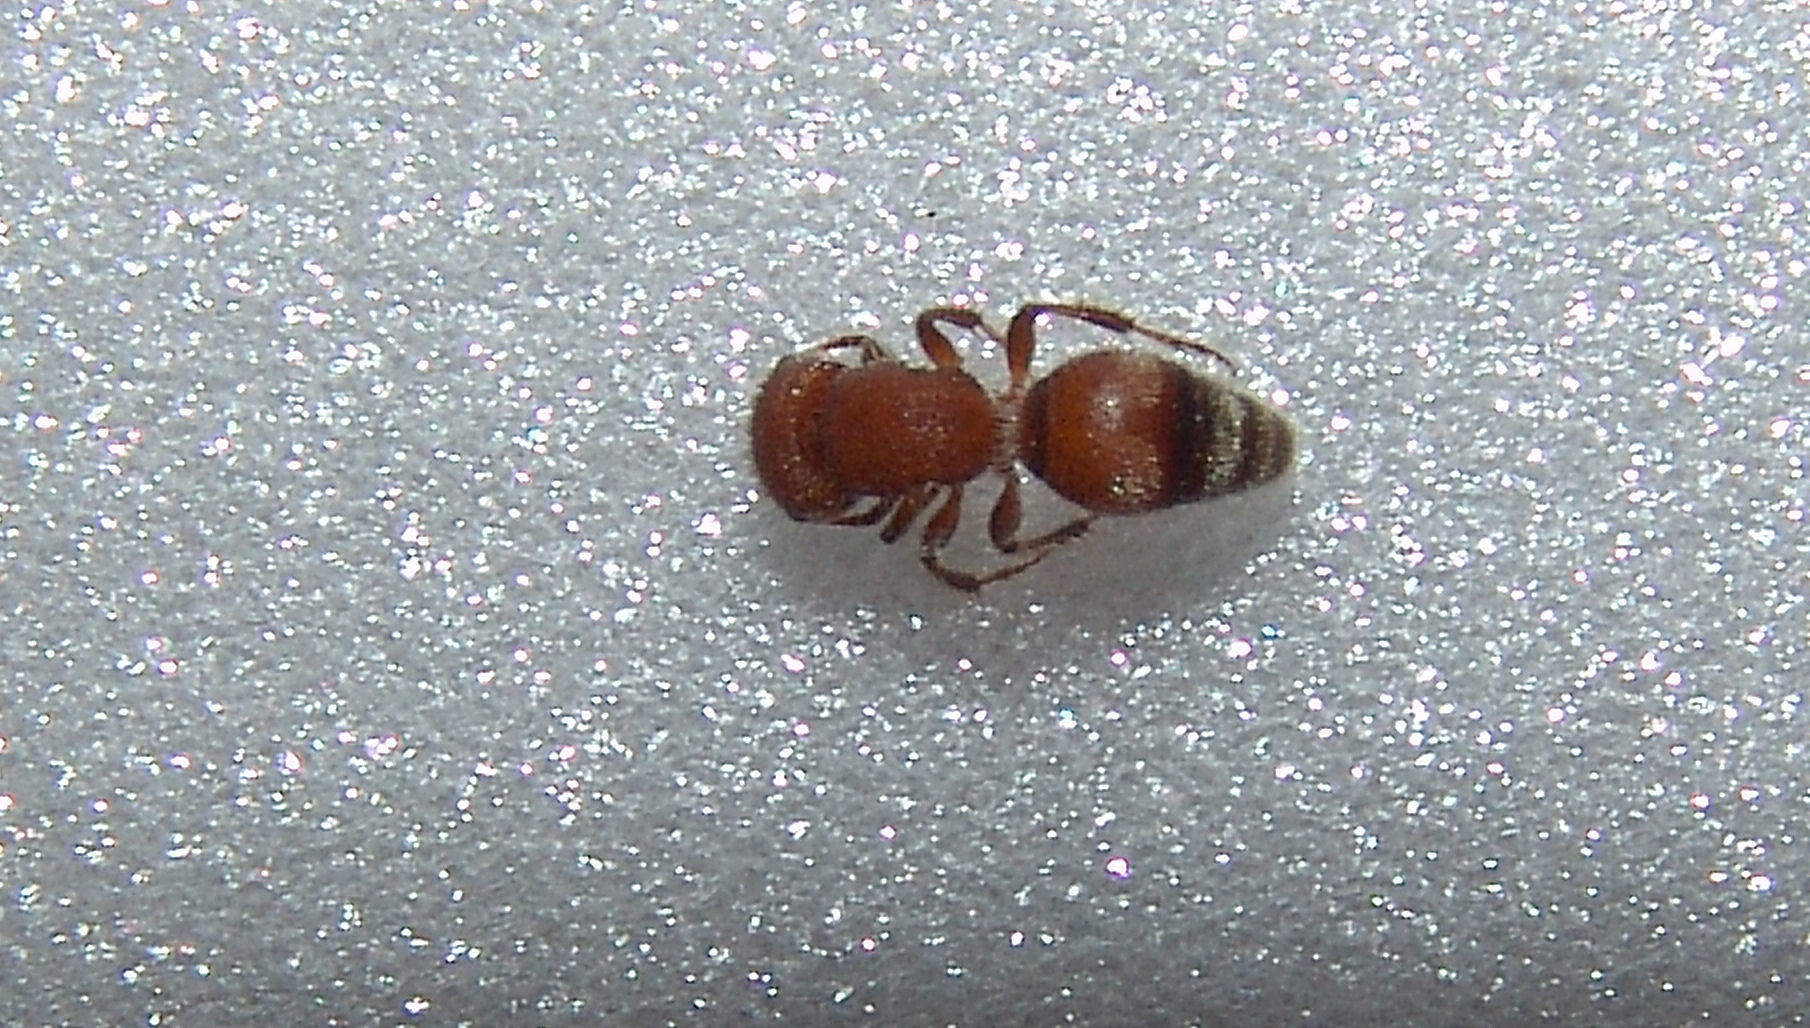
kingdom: Animalia
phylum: Arthropoda
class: Insecta
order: Hymenoptera
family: Mutillidae
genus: Pseudomethoca
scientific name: Pseudomethoca
